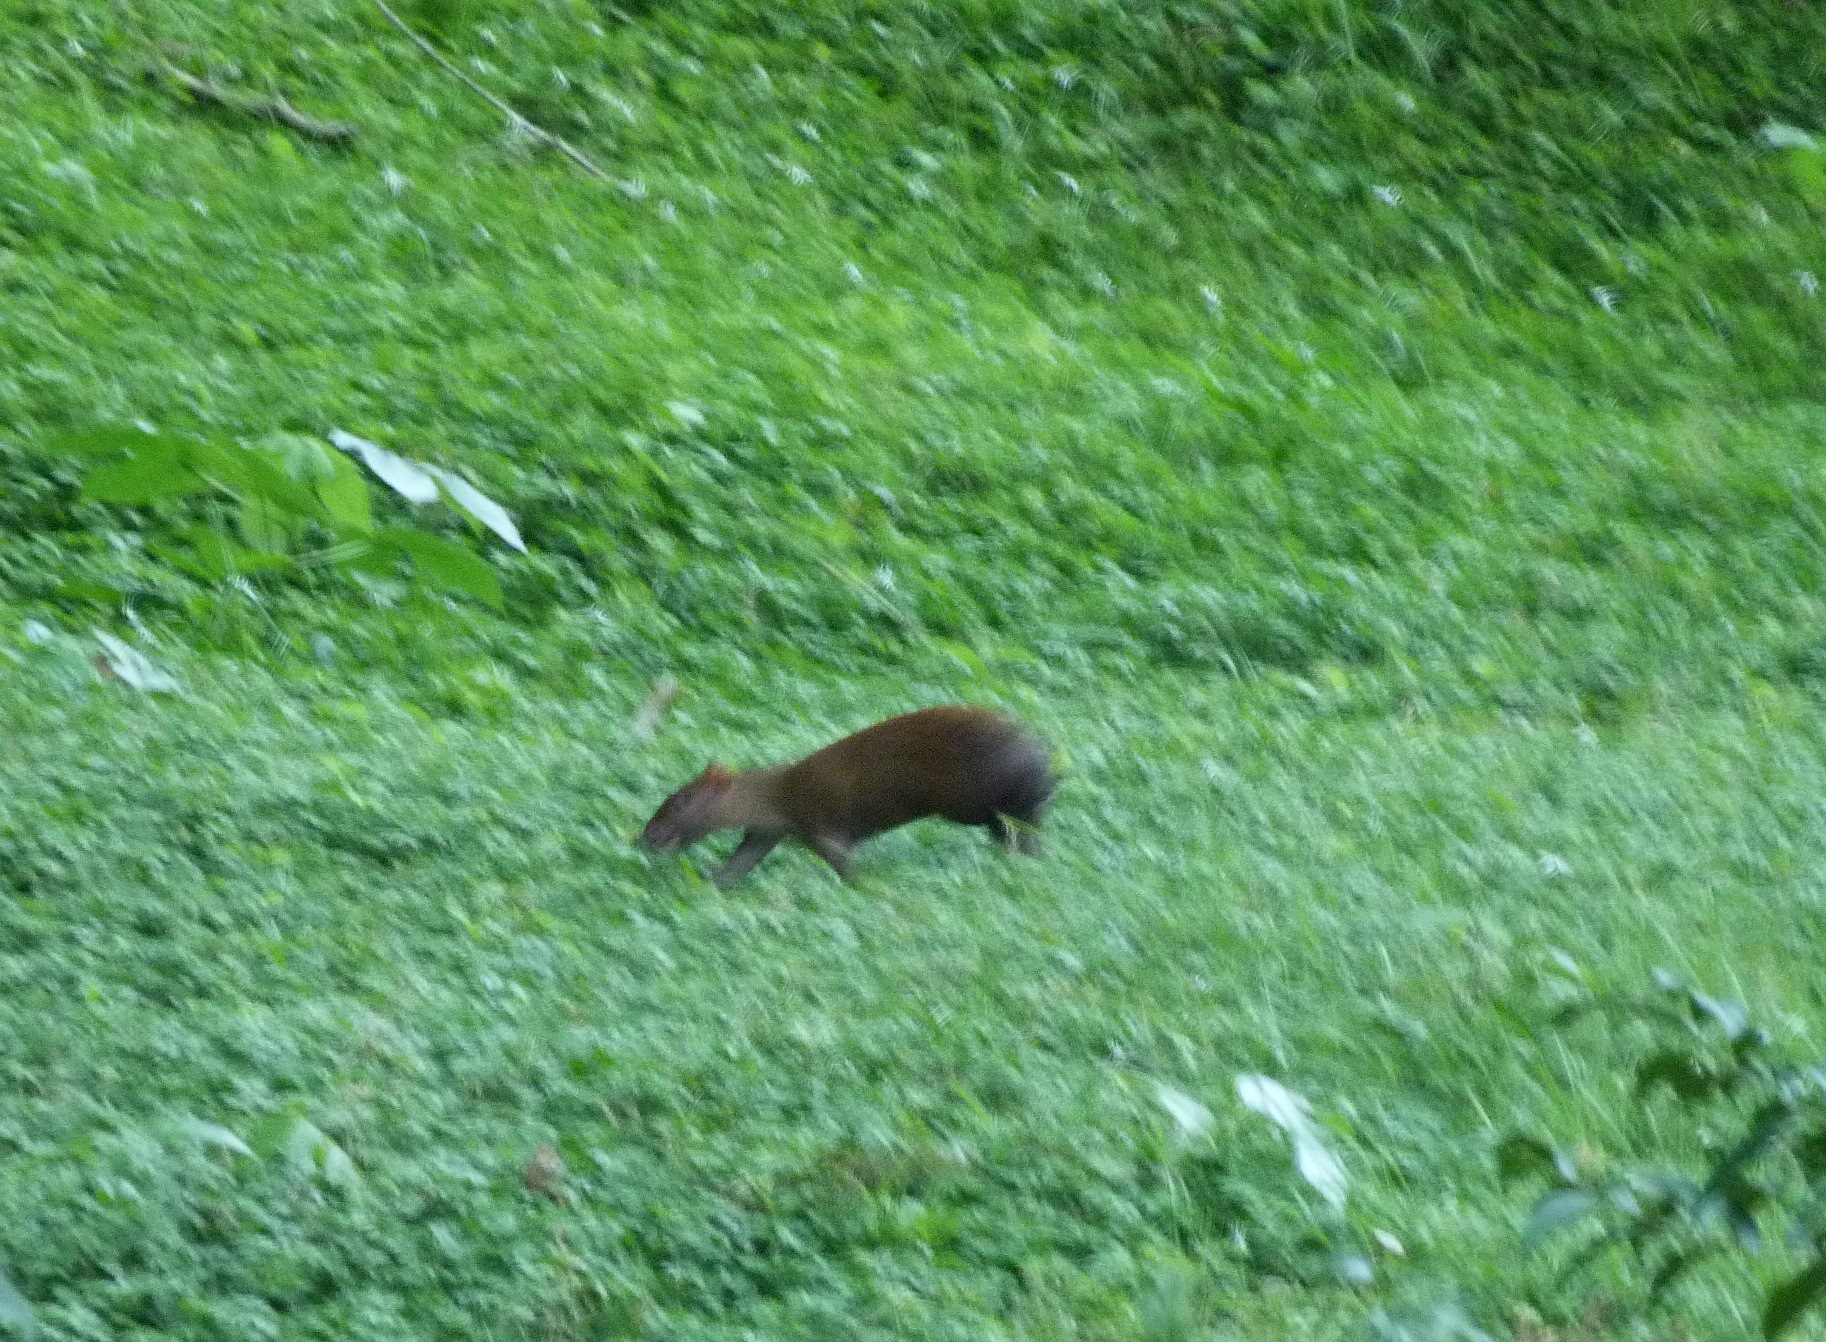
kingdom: Animalia
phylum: Chordata
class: Mammalia
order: Rodentia
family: Dasyproctidae
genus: Dasyprocta
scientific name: Dasyprocta punctata
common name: Central american agouti
